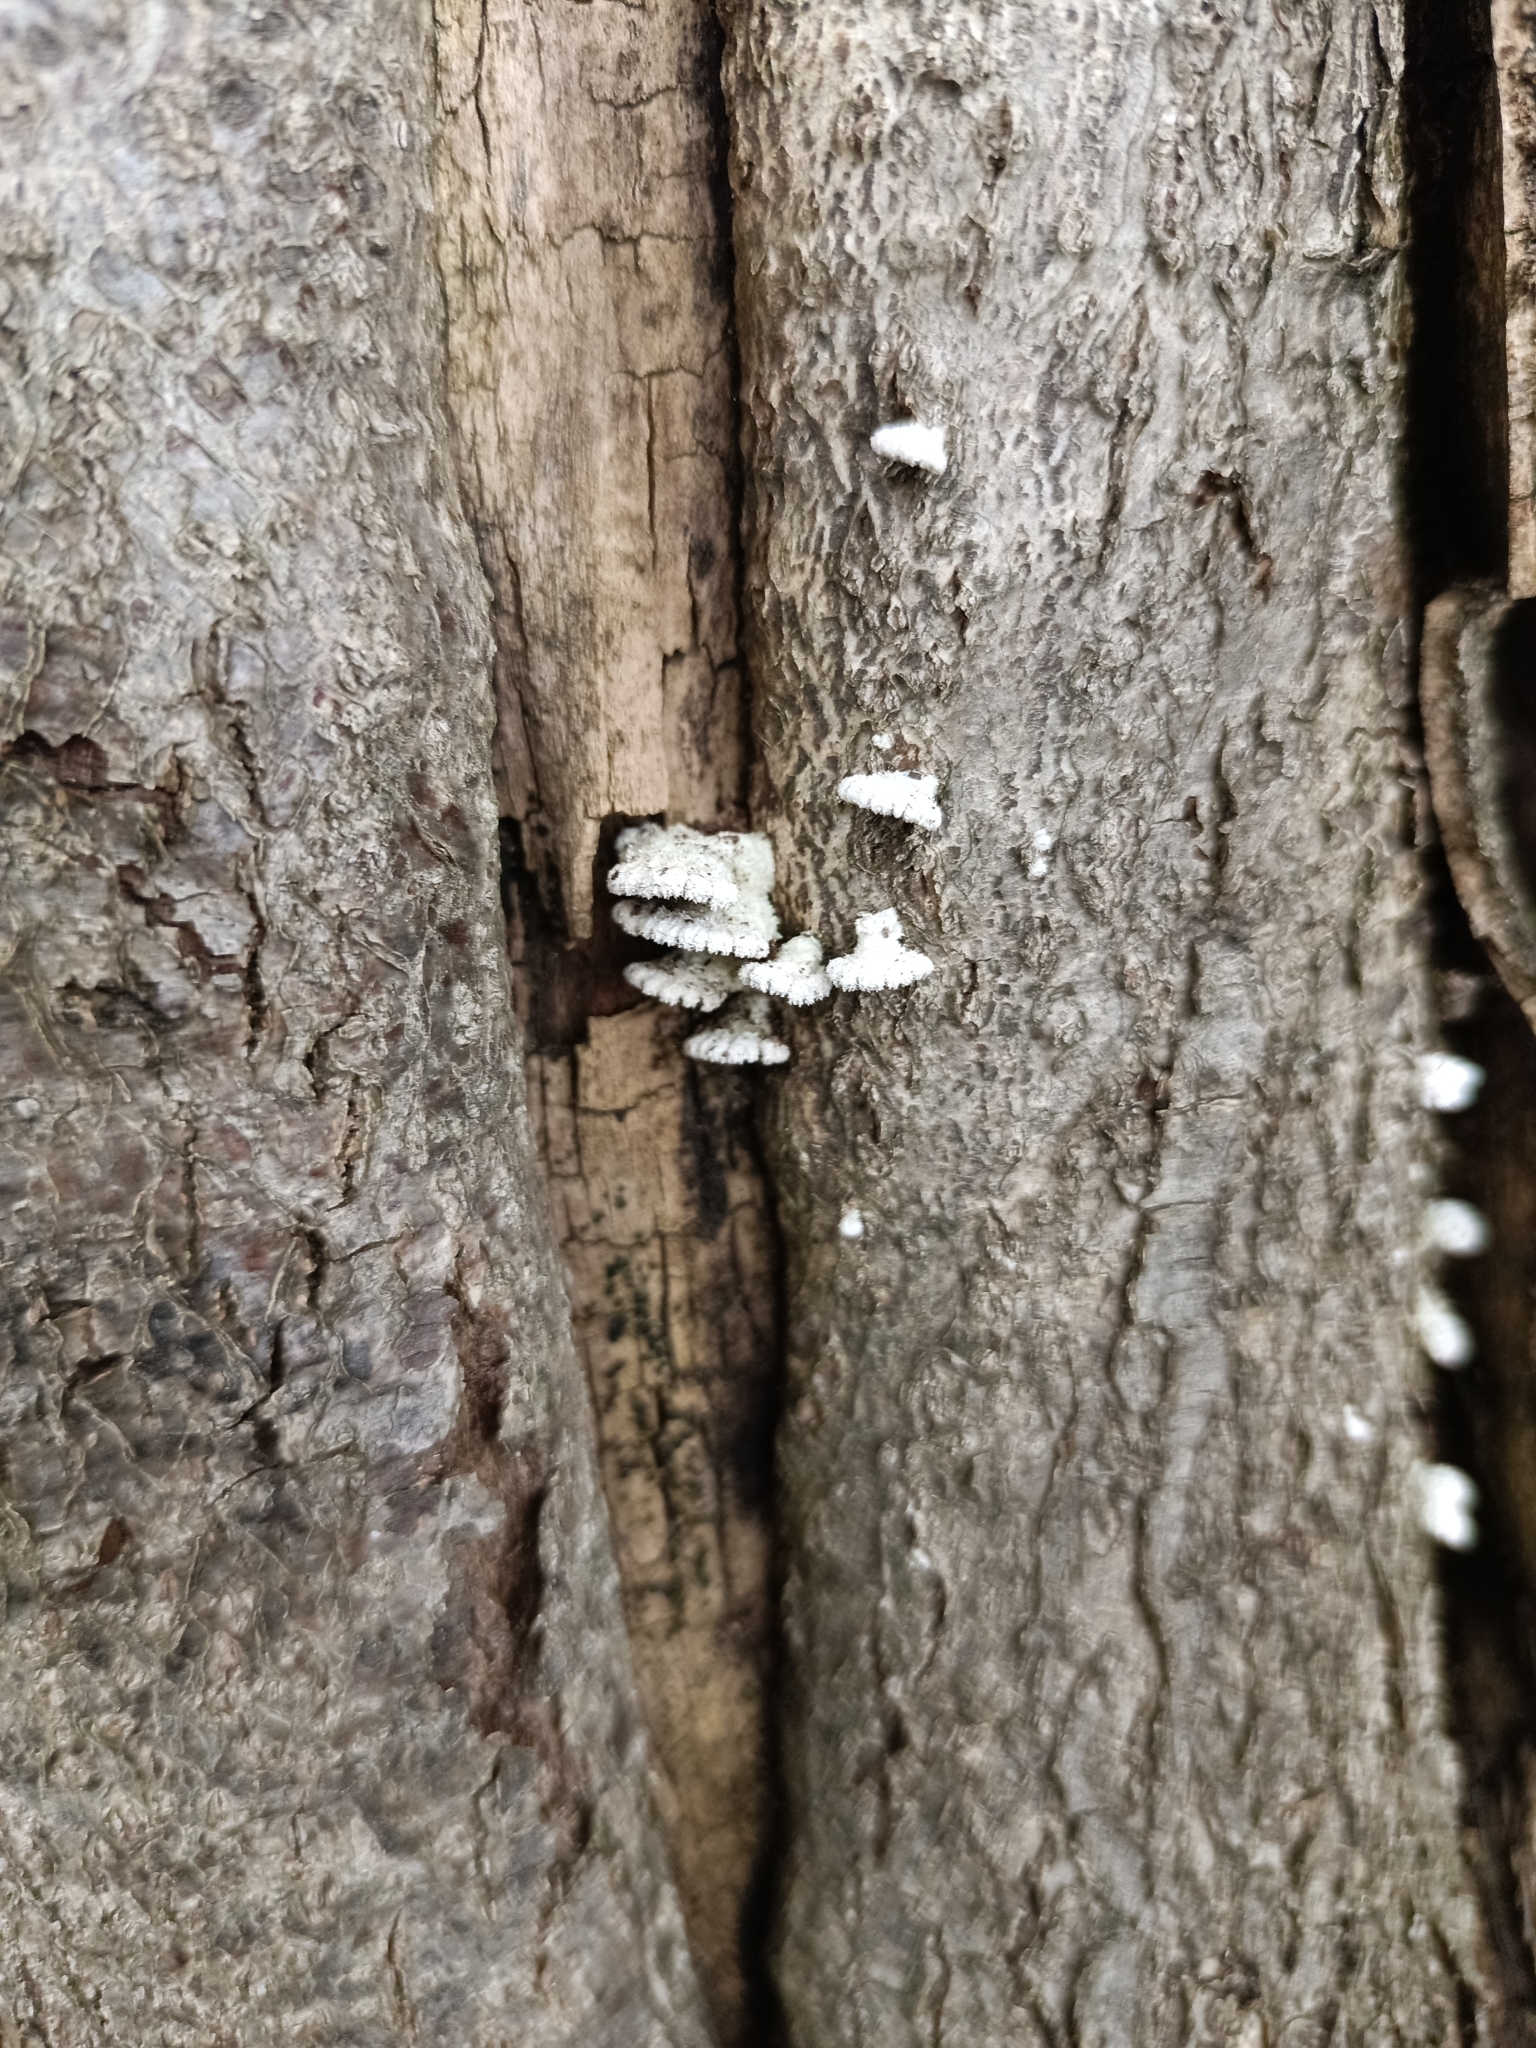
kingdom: Fungi
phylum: Basidiomycota
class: Agaricomycetes
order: Agaricales
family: Schizophyllaceae
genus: Schizophyllum
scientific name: Schizophyllum commune
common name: Common porecrust
